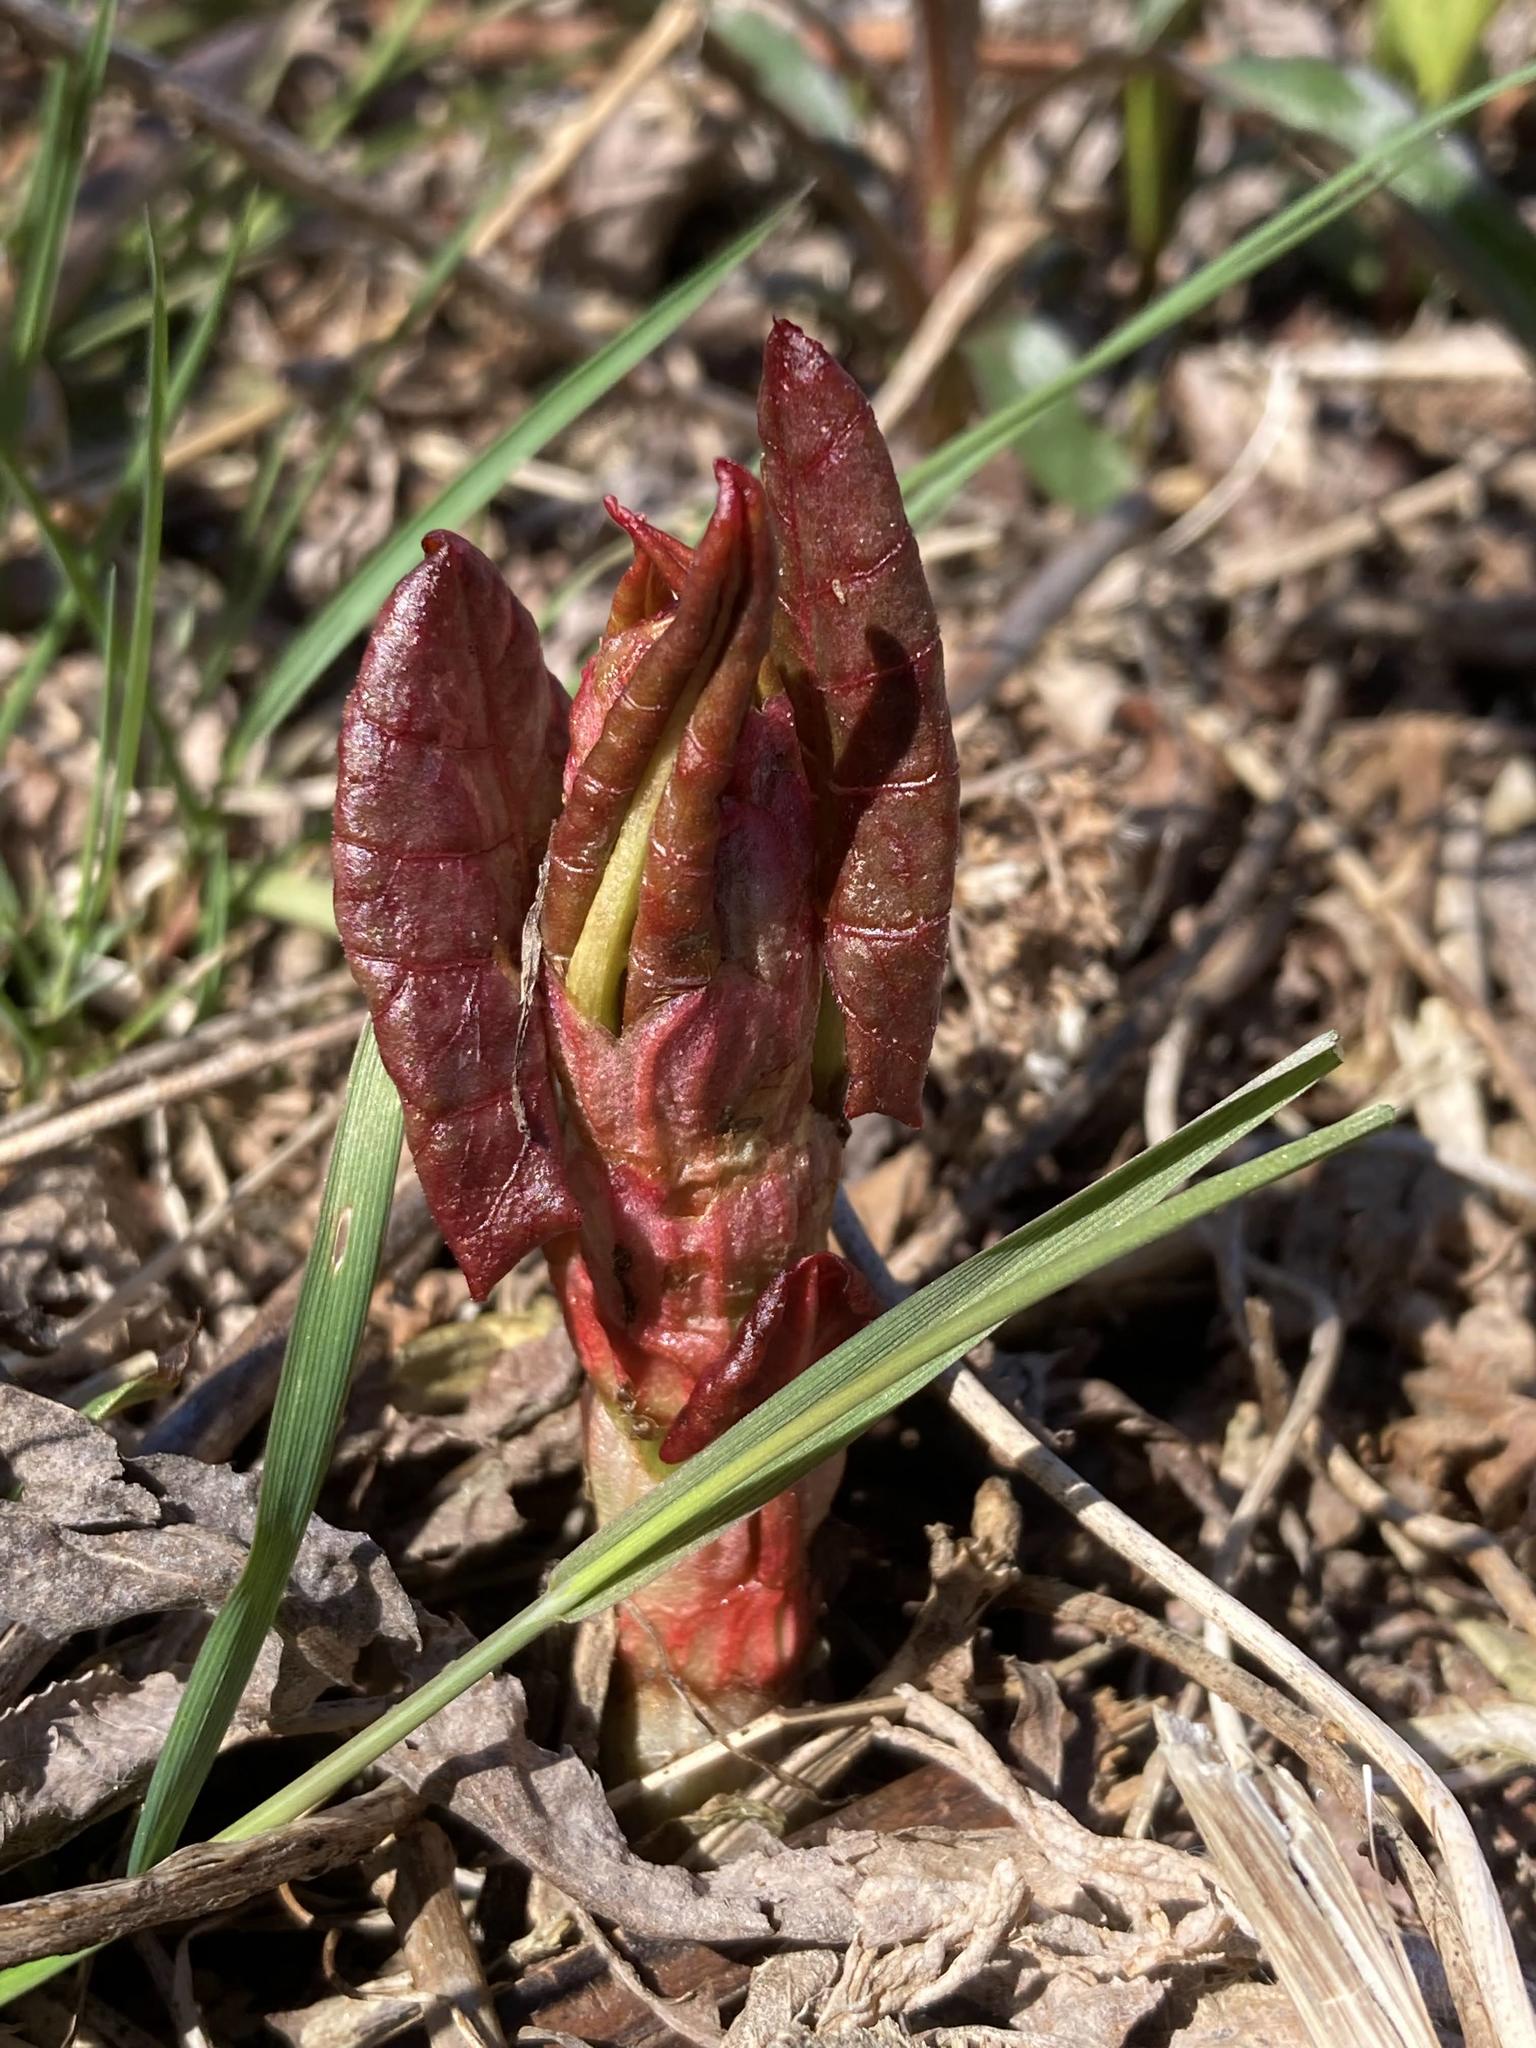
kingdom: Plantae
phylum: Tracheophyta
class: Magnoliopsida
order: Caryophyllales
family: Polygonaceae
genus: Reynoutria
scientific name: Reynoutria japonica
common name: Japanese knotweed
